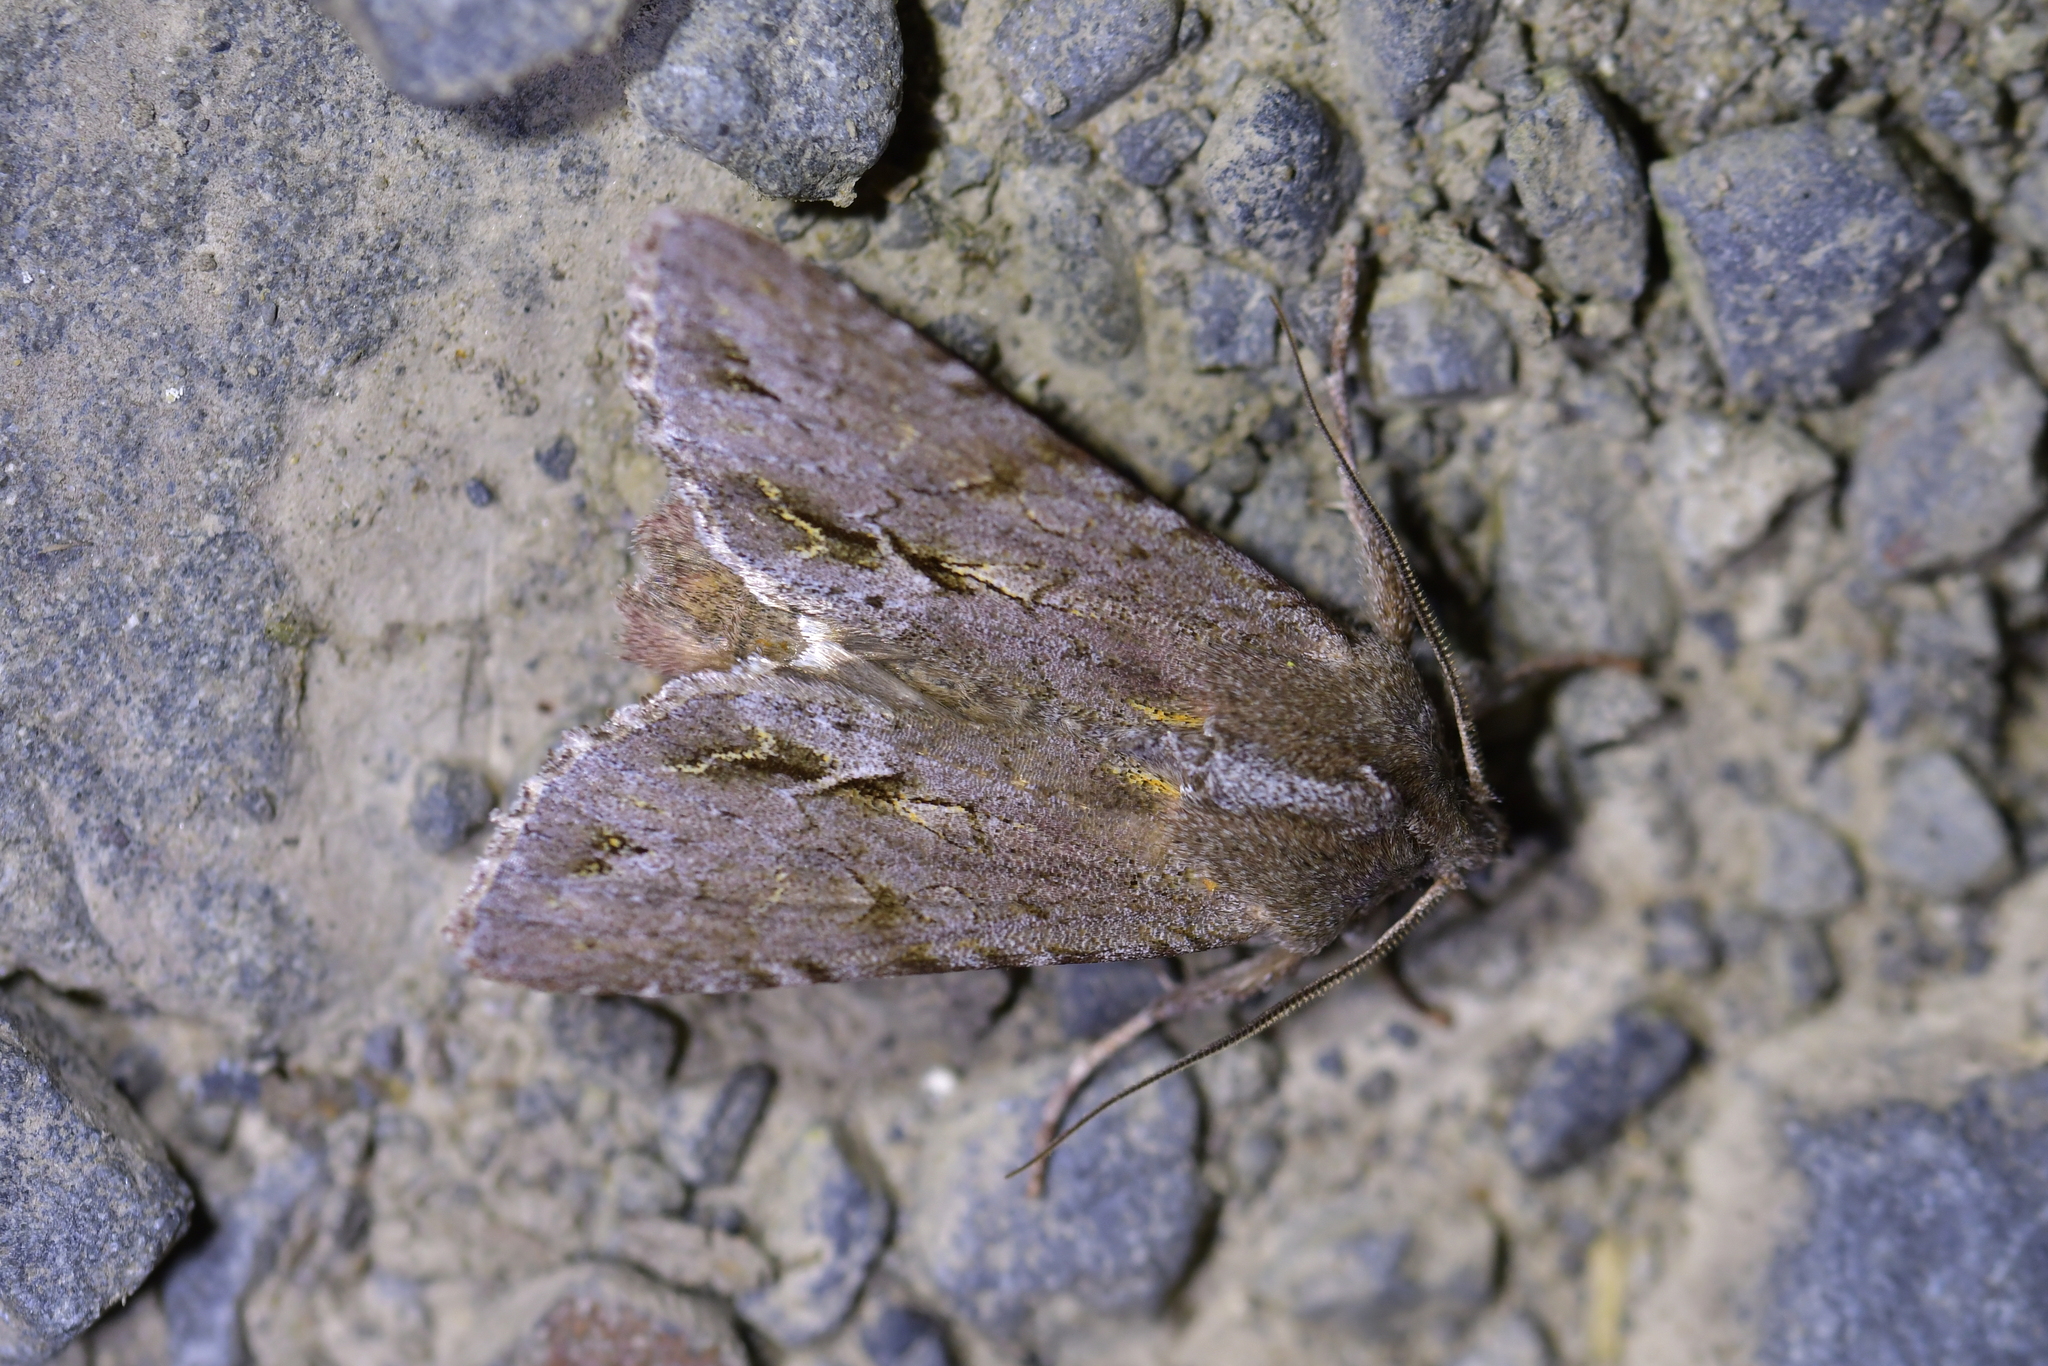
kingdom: Animalia
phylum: Arthropoda
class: Insecta
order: Lepidoptera
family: Noctuidae
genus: Ichneutica
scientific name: Ichneutica
